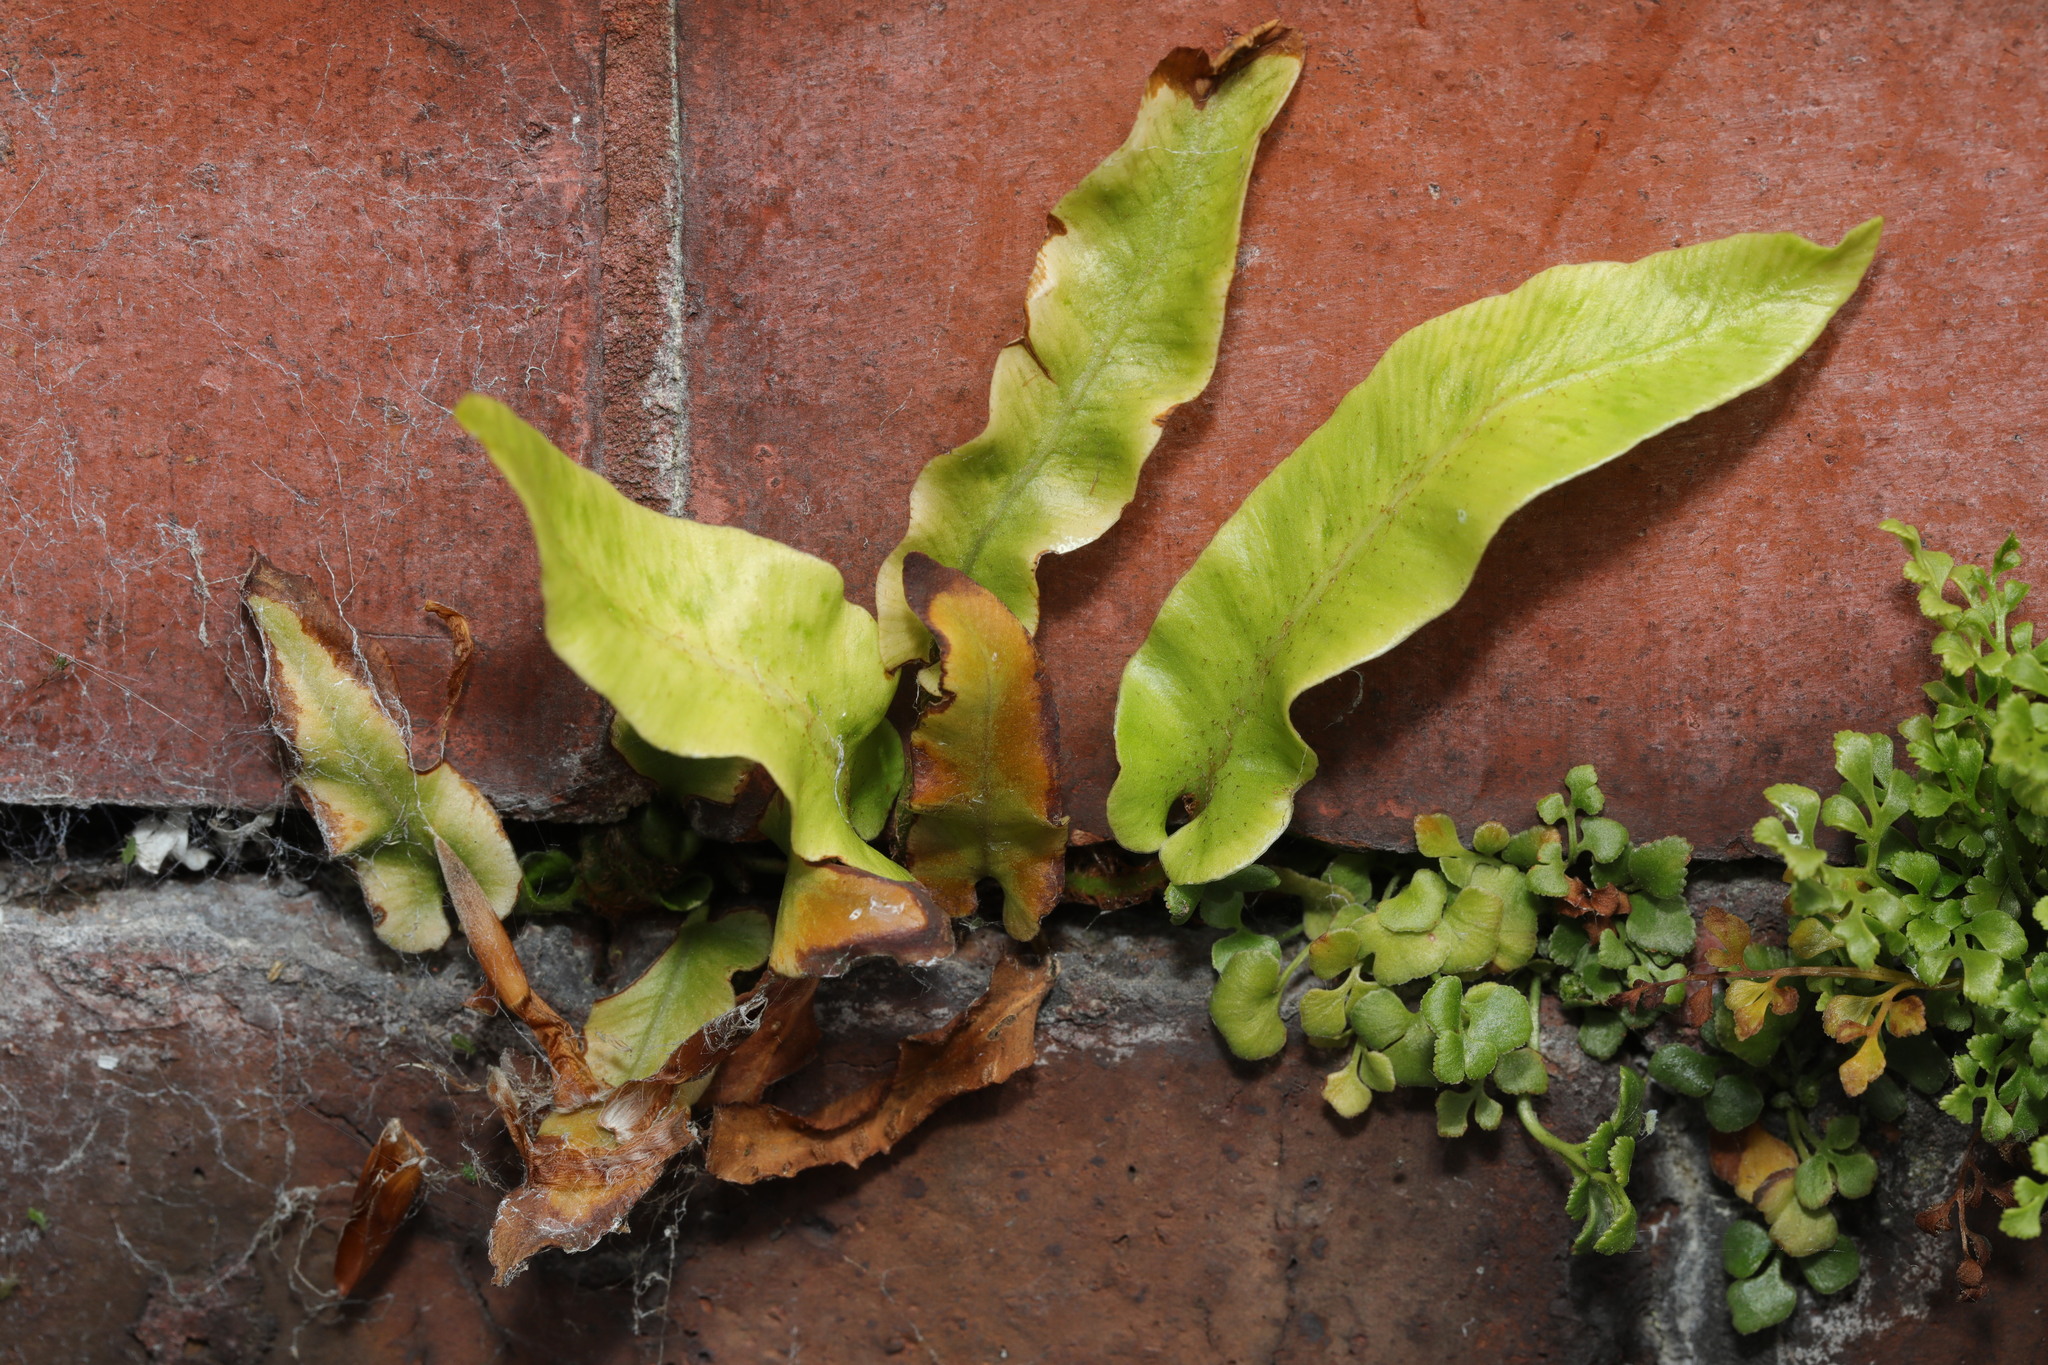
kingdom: Plantae
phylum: Tracheophyta
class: Polypodiopsida
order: Polypodiales
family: Aspleniaceae
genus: Asplenium
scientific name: Asplenium scolopendrium
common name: Hart's-tongue fern
